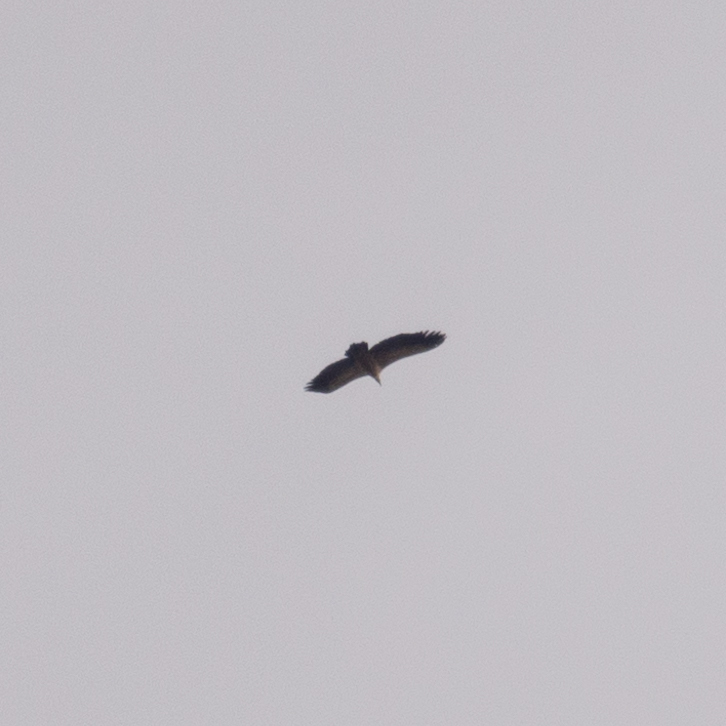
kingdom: Animalia
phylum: Chordata
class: Aves
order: Accipitriformes
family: Accipitridae
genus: Gyps
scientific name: Gyps fulvus
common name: Griffon vulture
